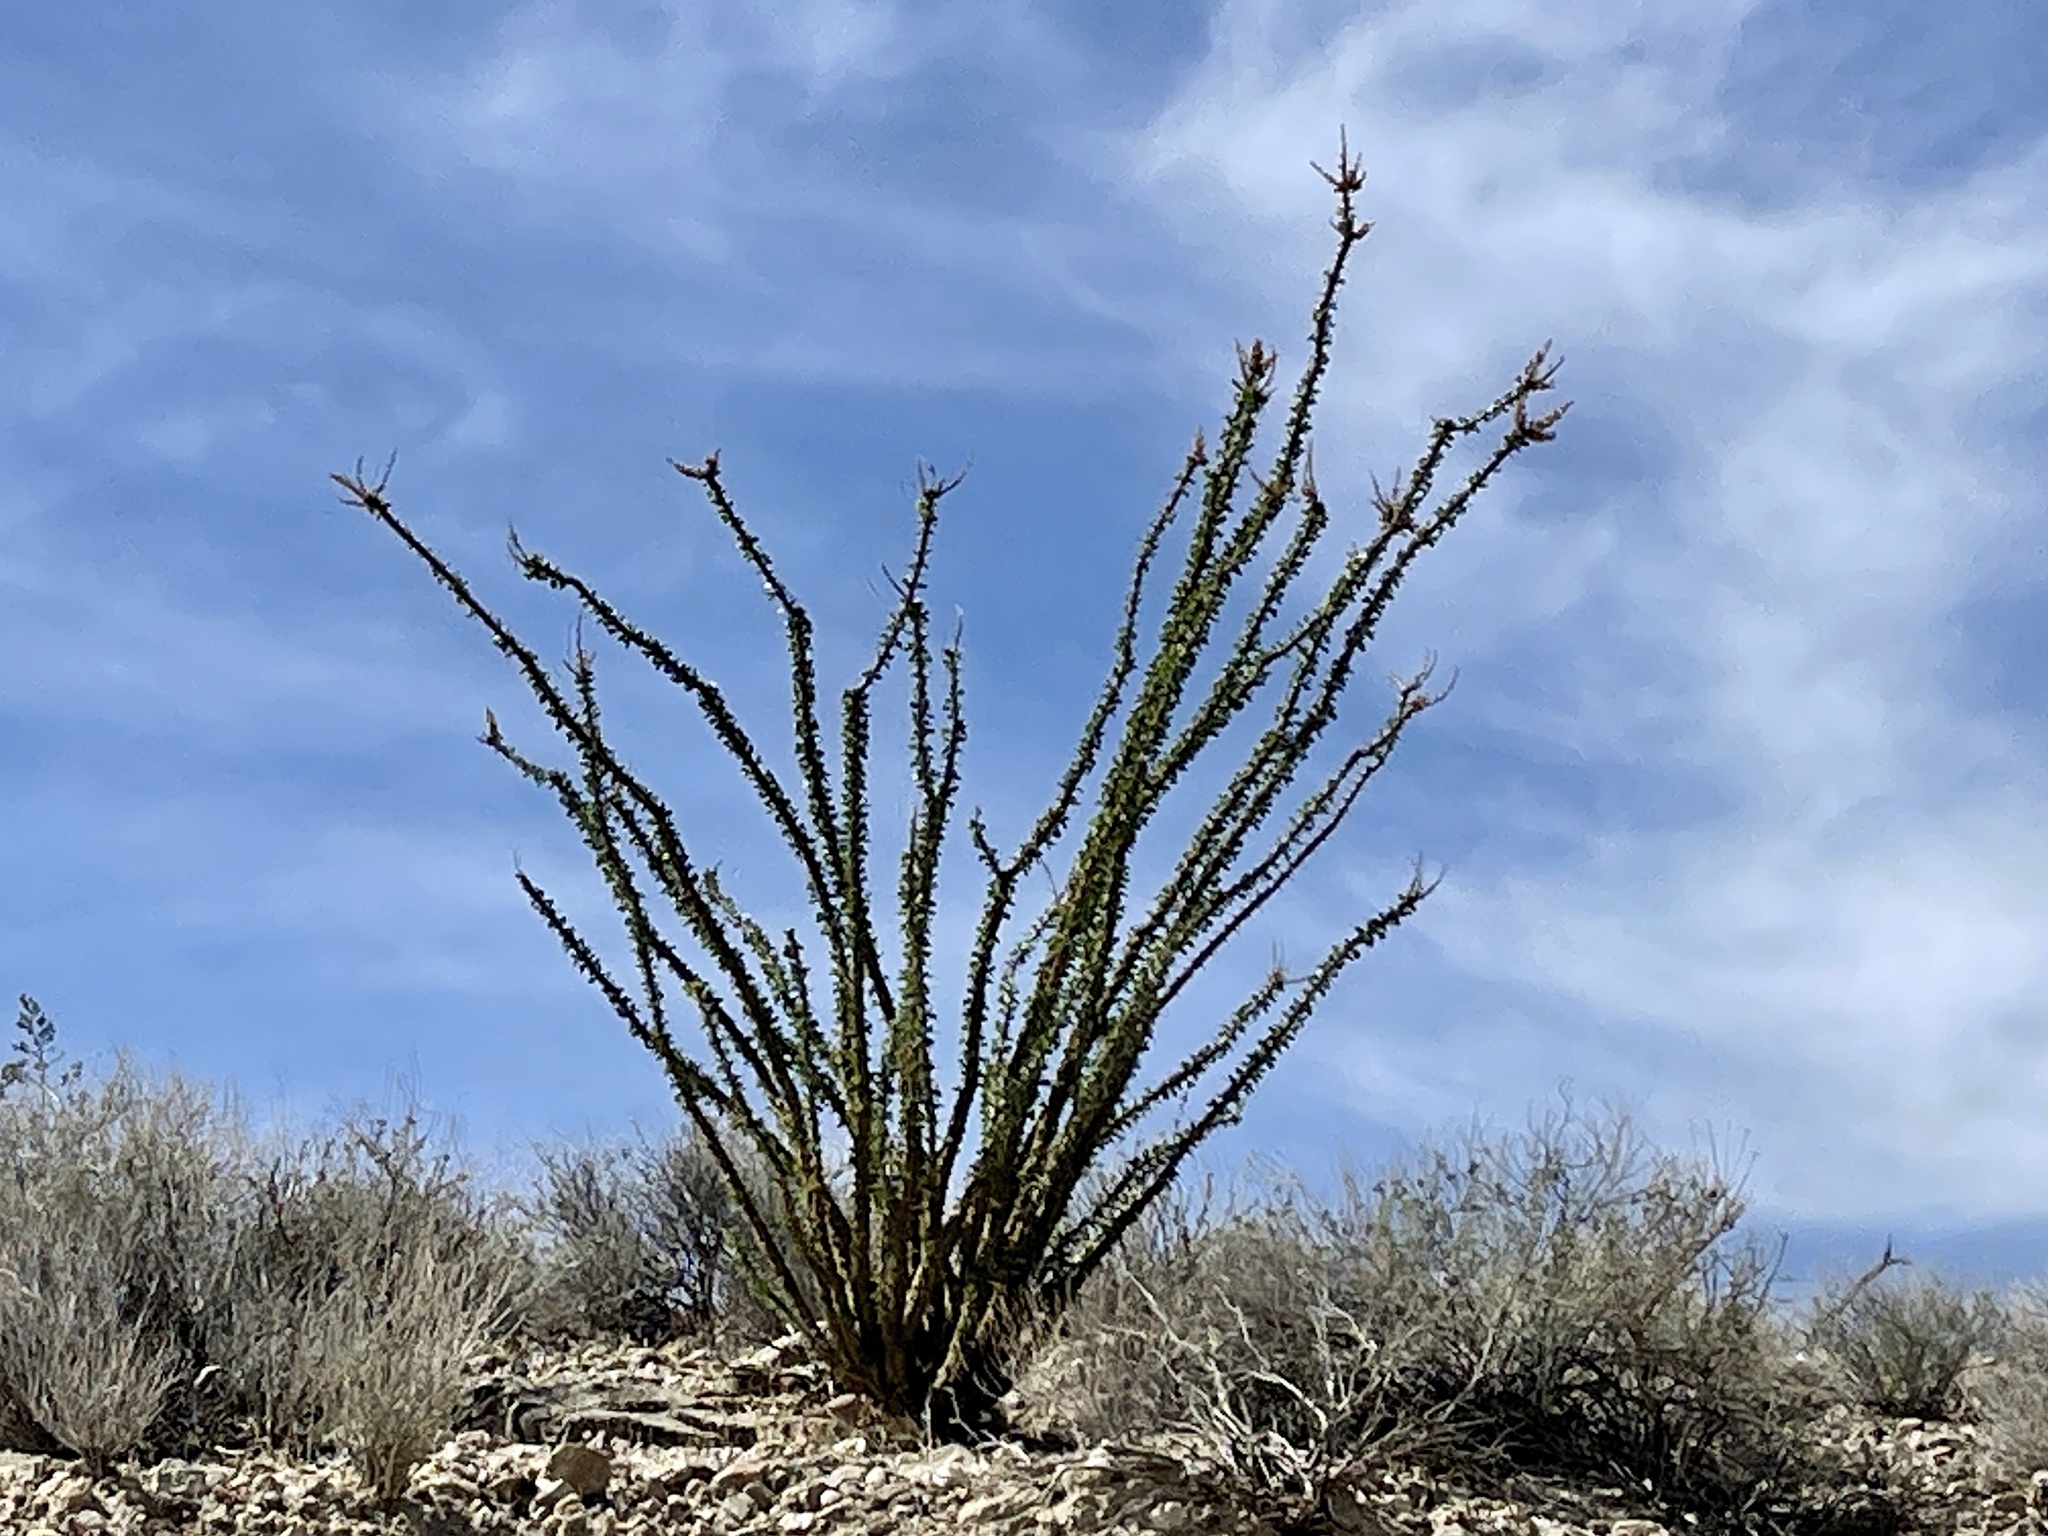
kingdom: Plantae
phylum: Tracheophyta
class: Magnoliopsida
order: Ericales
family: Fouquieriaceae
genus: Fouquieria
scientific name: Fouquieria splendens
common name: Vine-cactus
